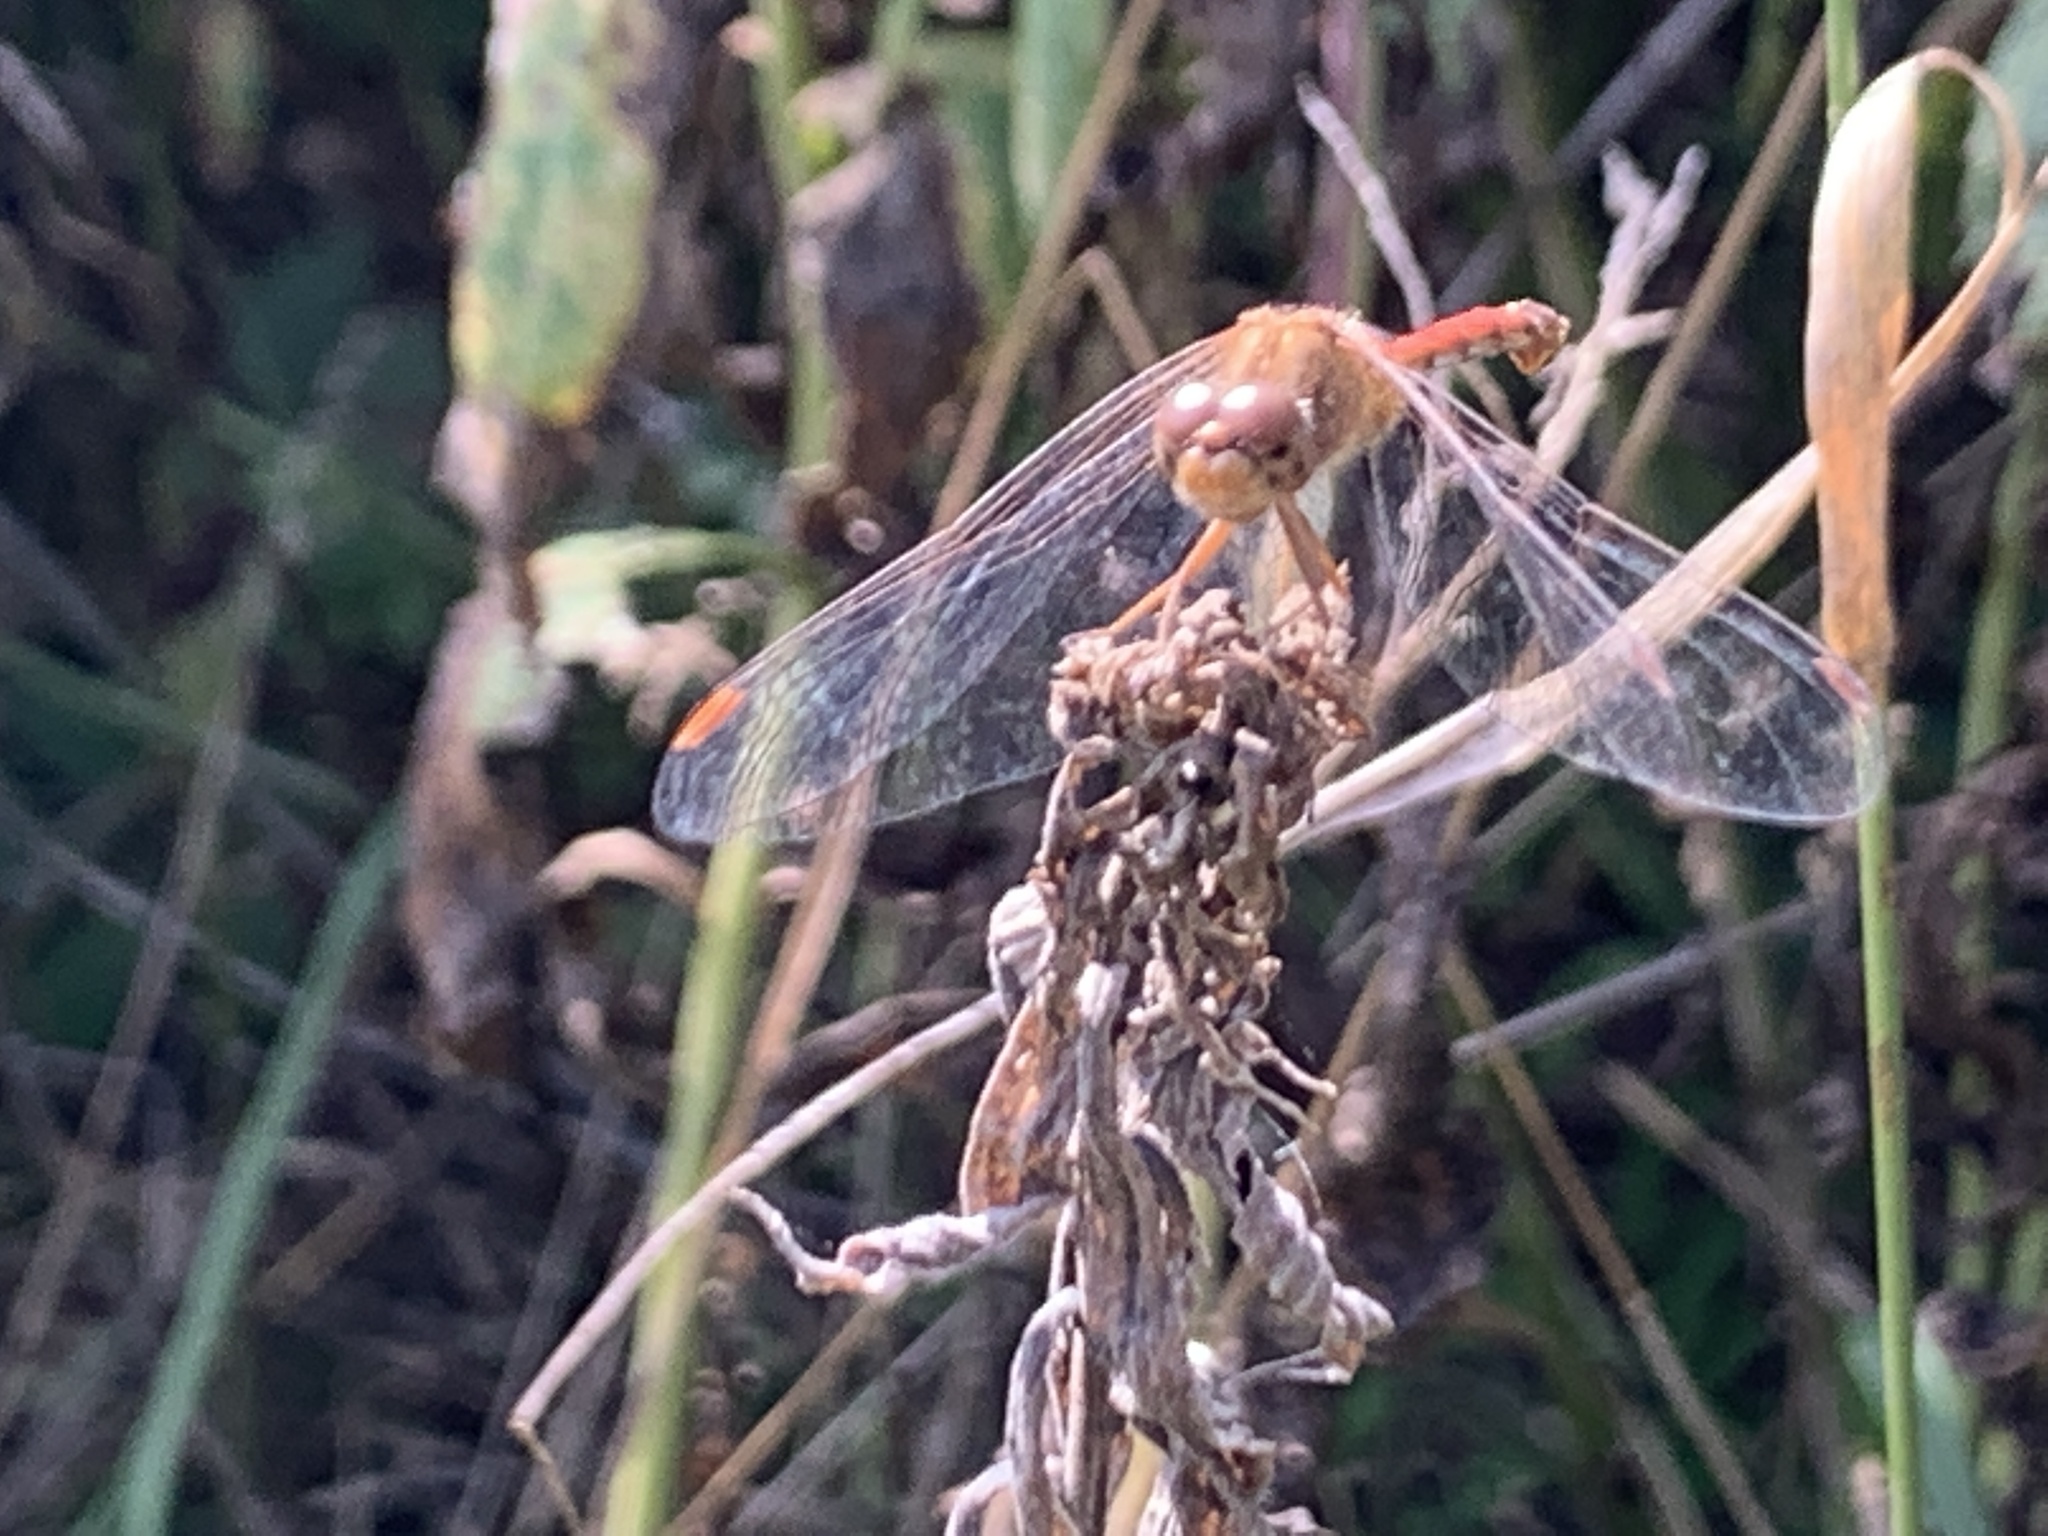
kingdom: Animalia
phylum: Arthropoda
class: Insecta
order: Odonata
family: Libellulidae
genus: Sympetrum
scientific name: Sympetrum vicinum
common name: Autumn meadowhawk
